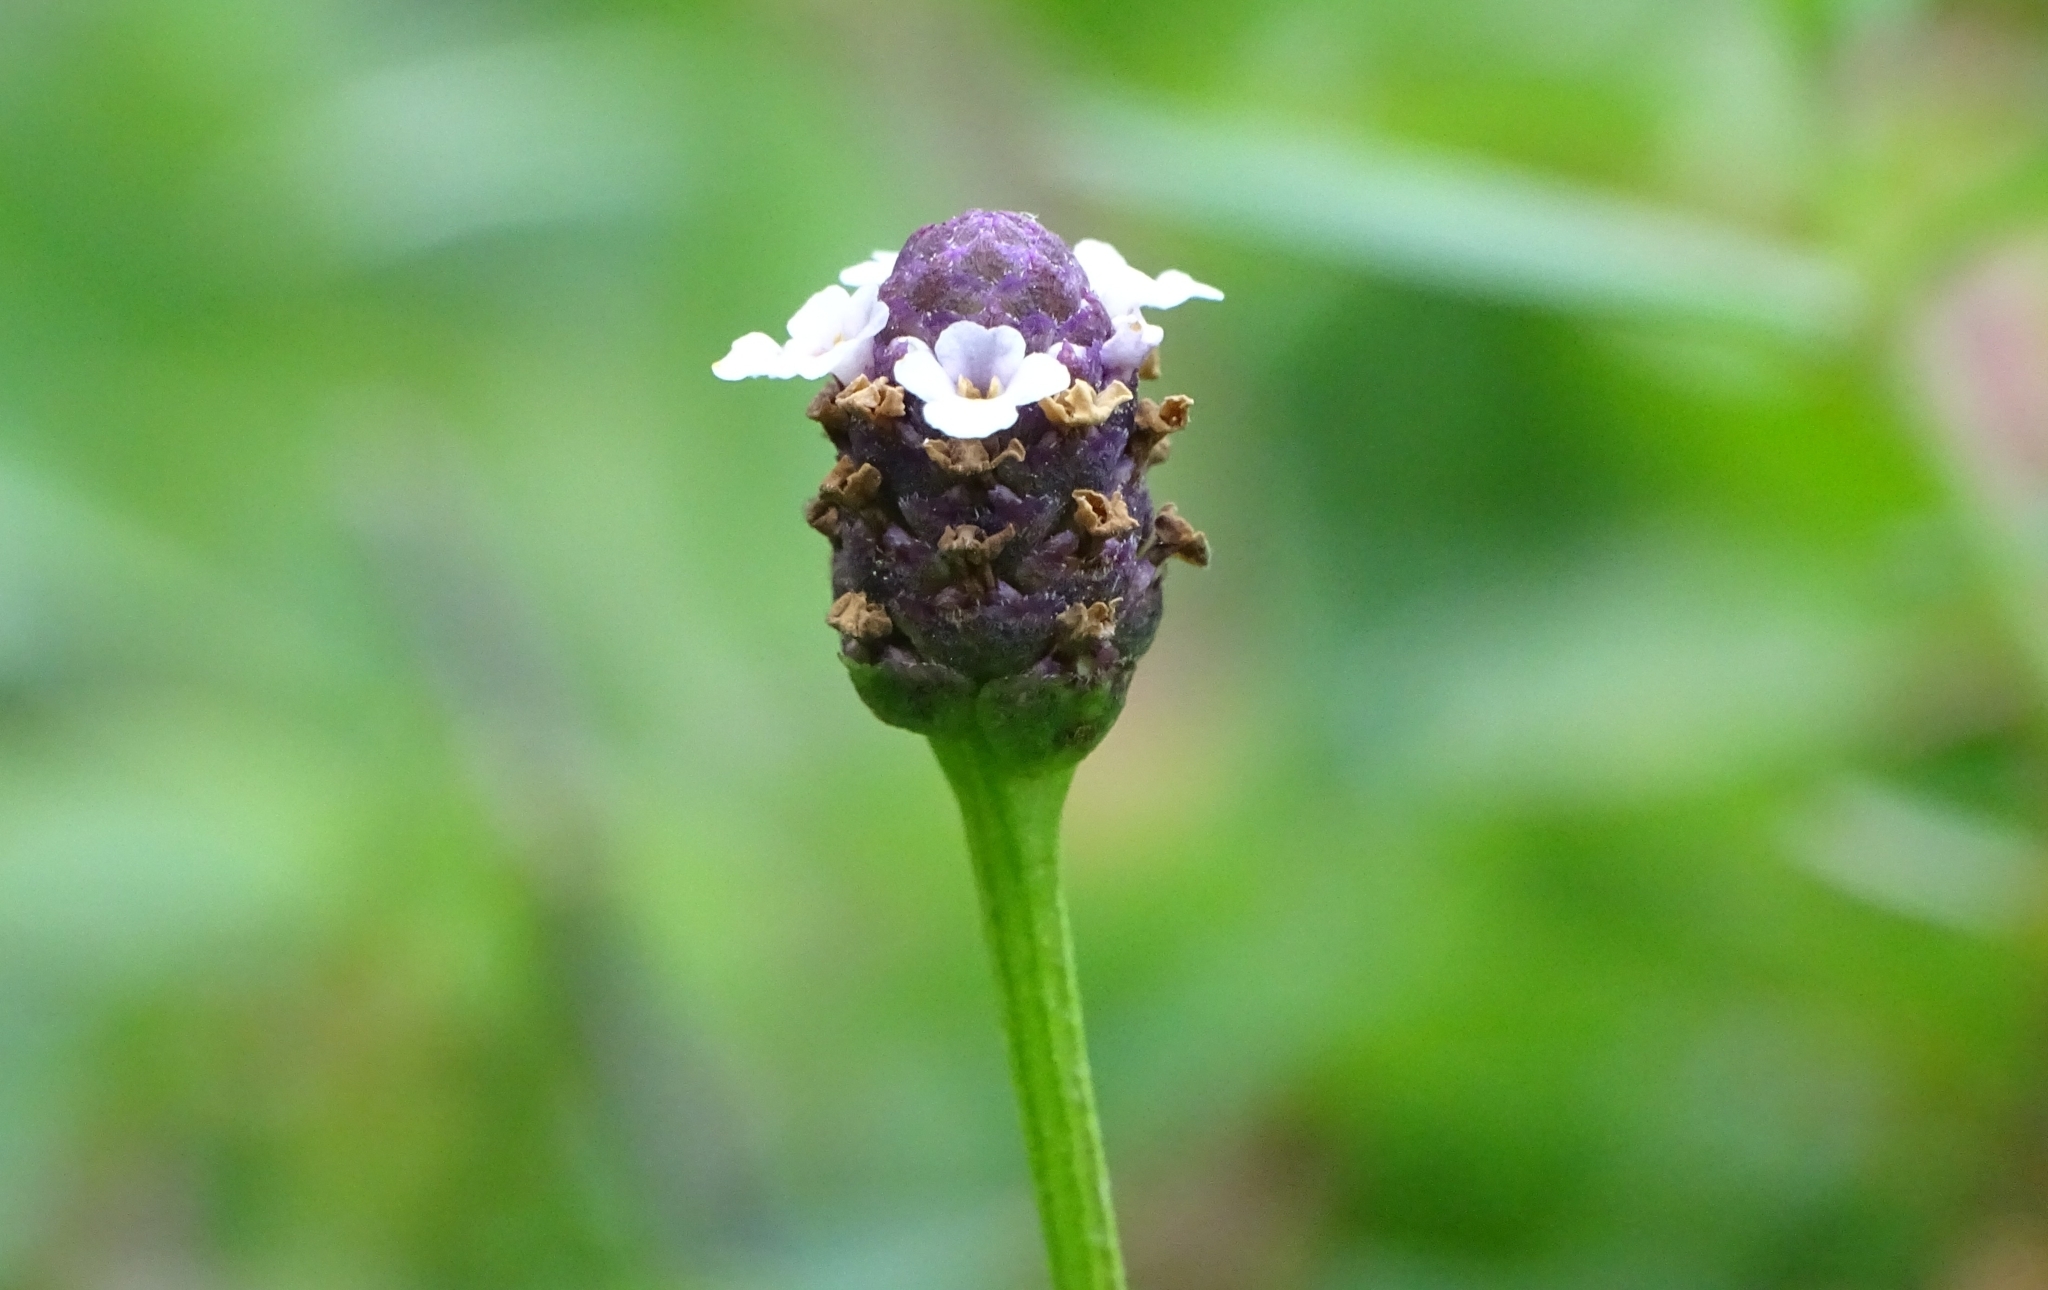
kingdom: Plantae
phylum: Tracheophyta
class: Magnoliopsida
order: Lamiales
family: Verbenaceae
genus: Phyla
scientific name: Phyla nodiflora
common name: Frogfruit
